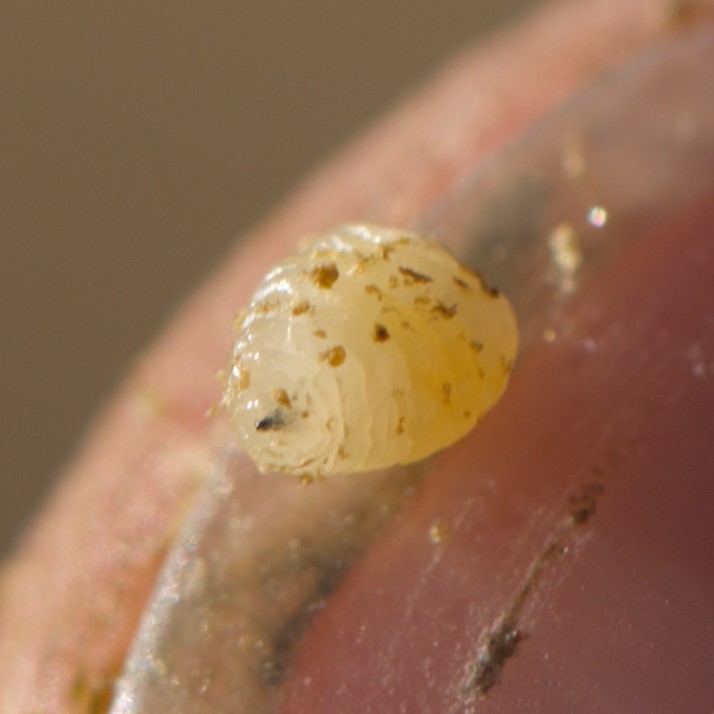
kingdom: Animalia
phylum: Arthropoda
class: Insecta
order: Diptera
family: Tephritidae
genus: Aciurina
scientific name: Aciurina trixa
